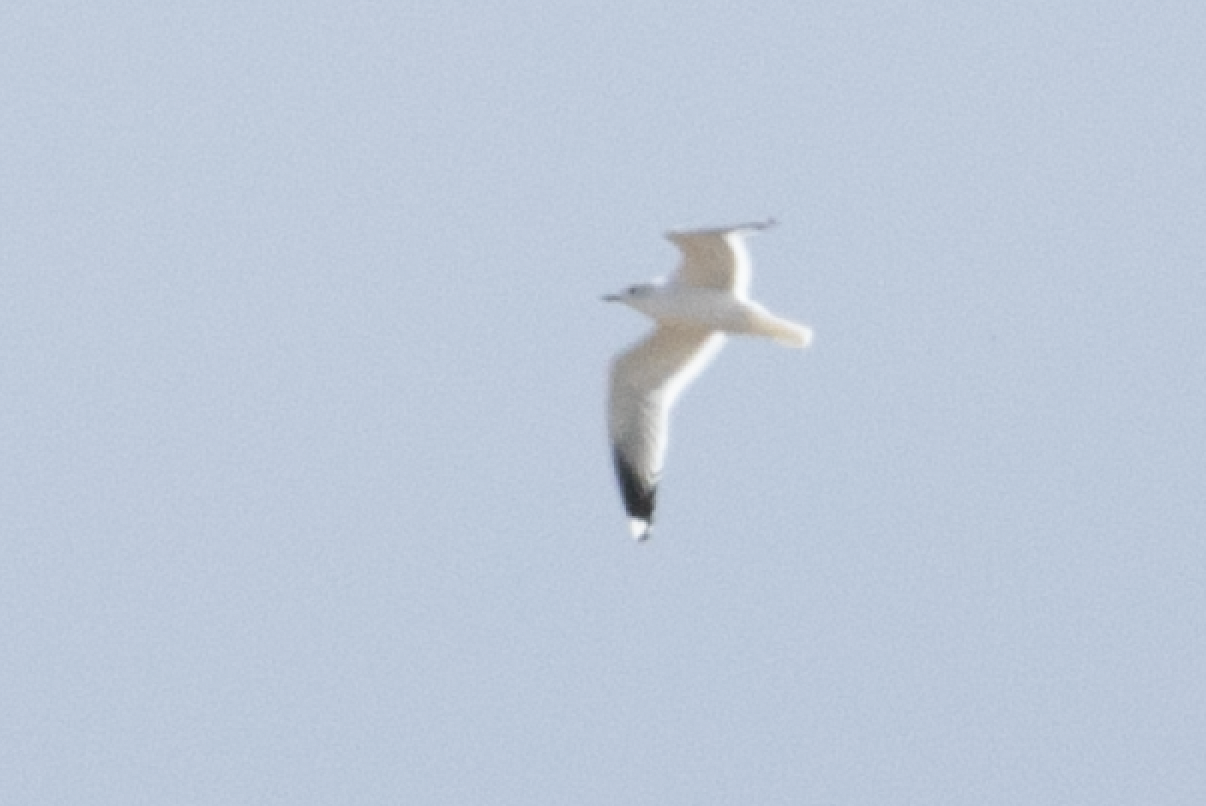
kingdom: Animalia
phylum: Chordata
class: Aves
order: Charadriiformes
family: Laridae
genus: Larus
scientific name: Larus canus
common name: Mew gull
